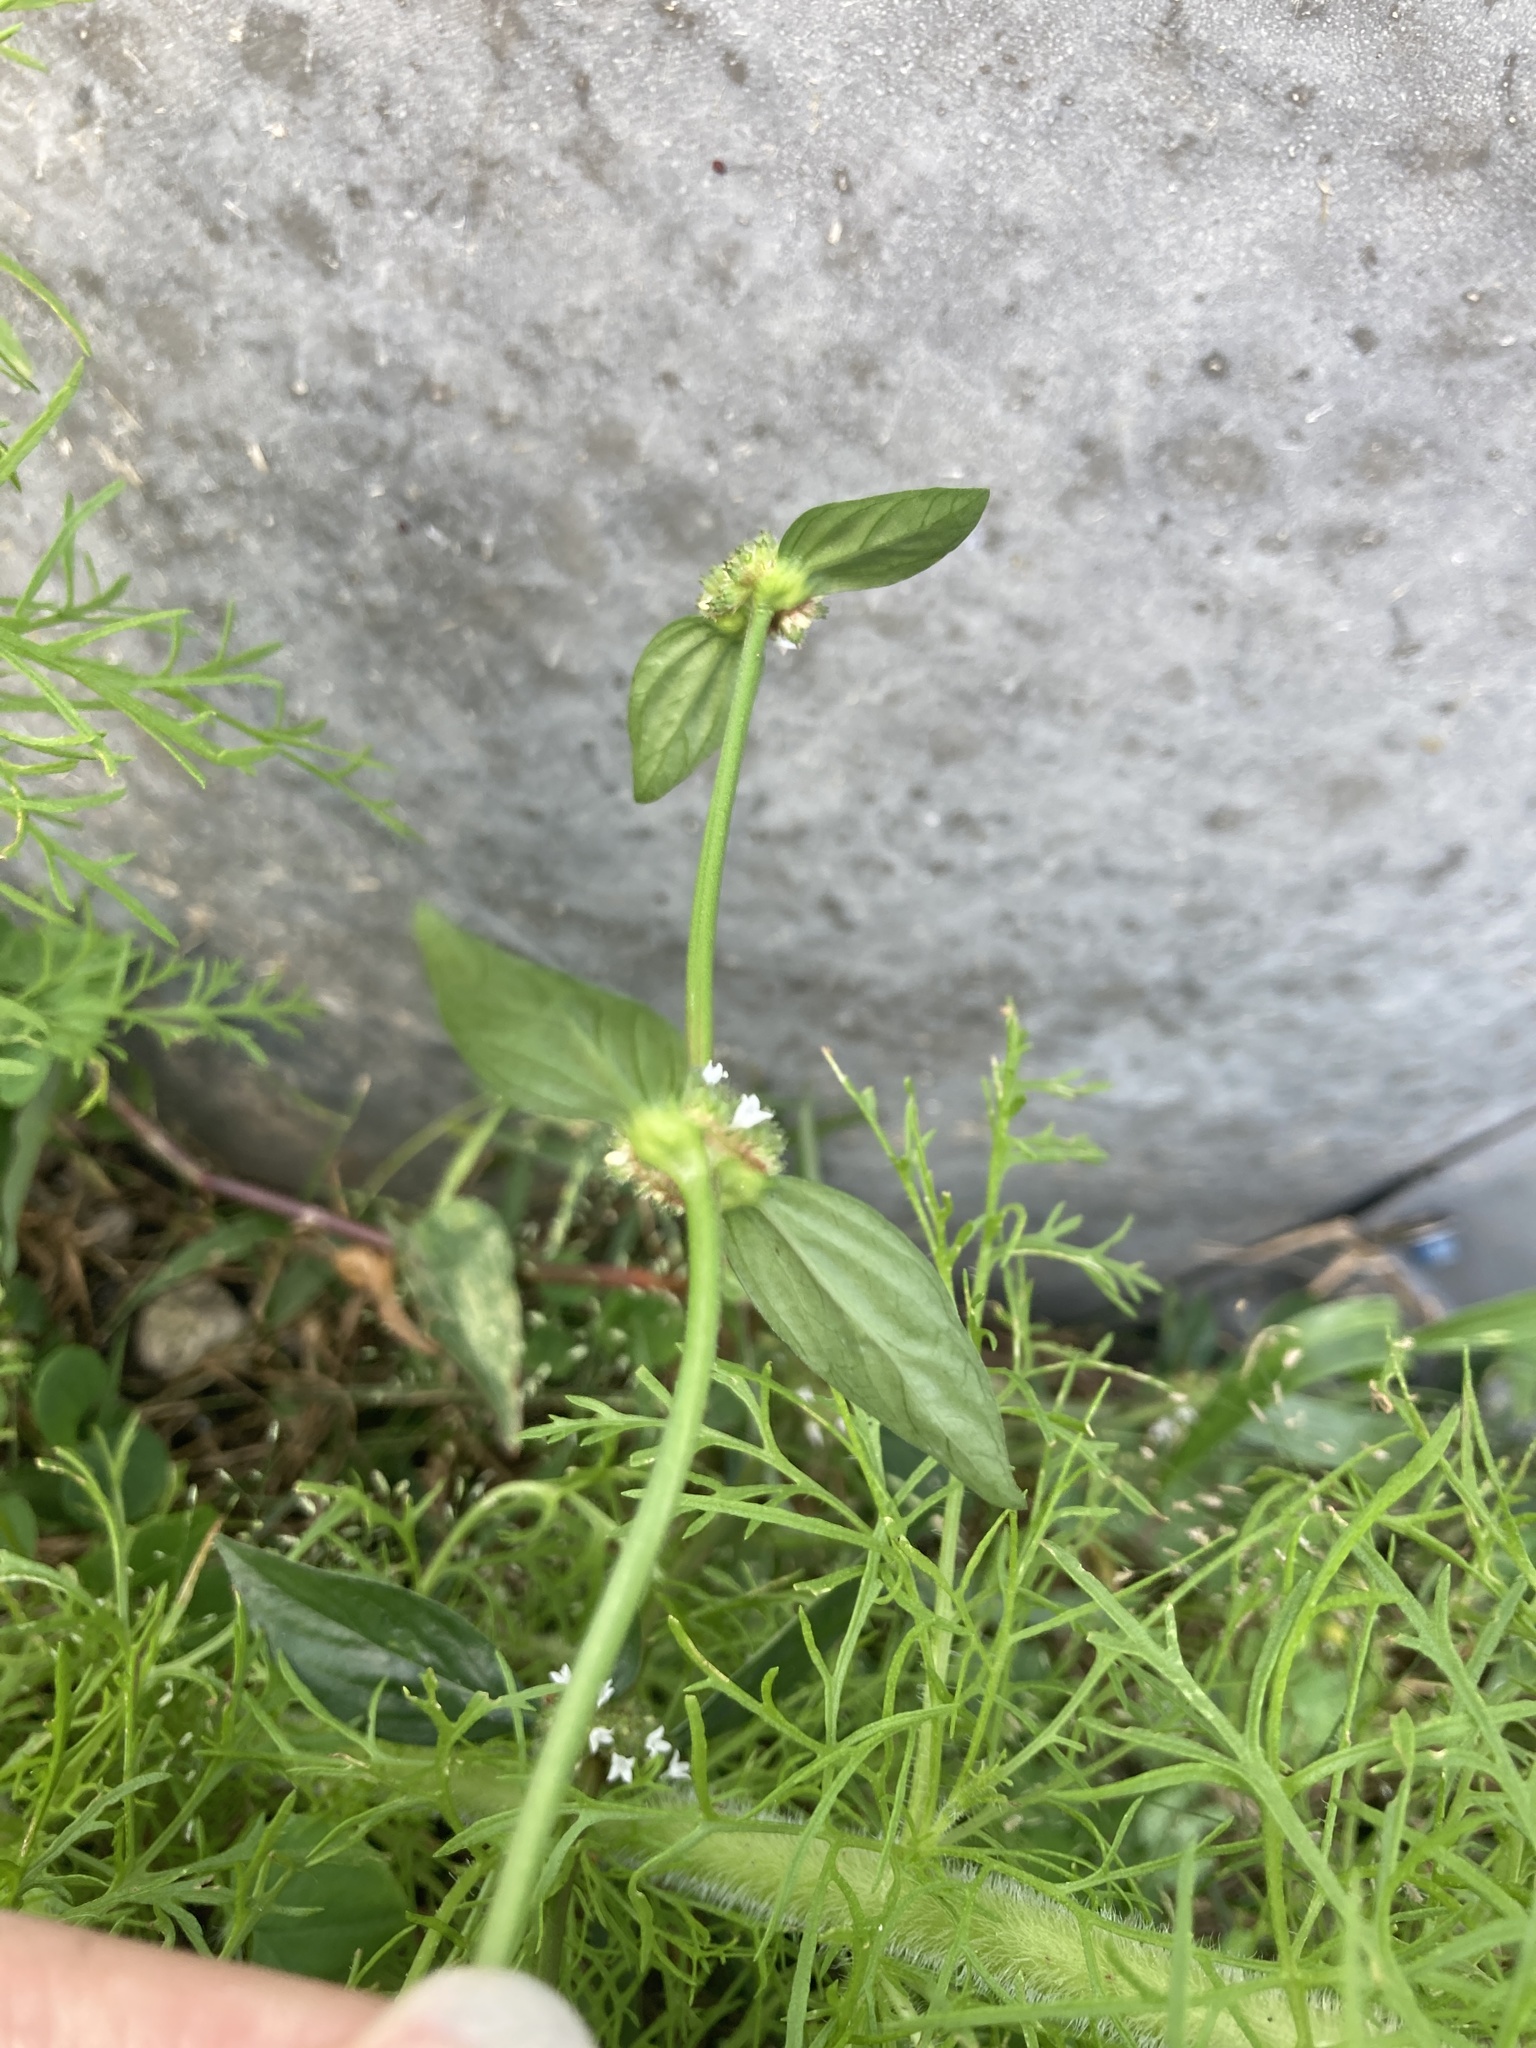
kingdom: Plantae
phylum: Tracheophyta
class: Magnoliopsida
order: Gentianales
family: Rubiaceae
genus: Spermacoce
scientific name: Spermacoce remota
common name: Woodland false buttonweed
